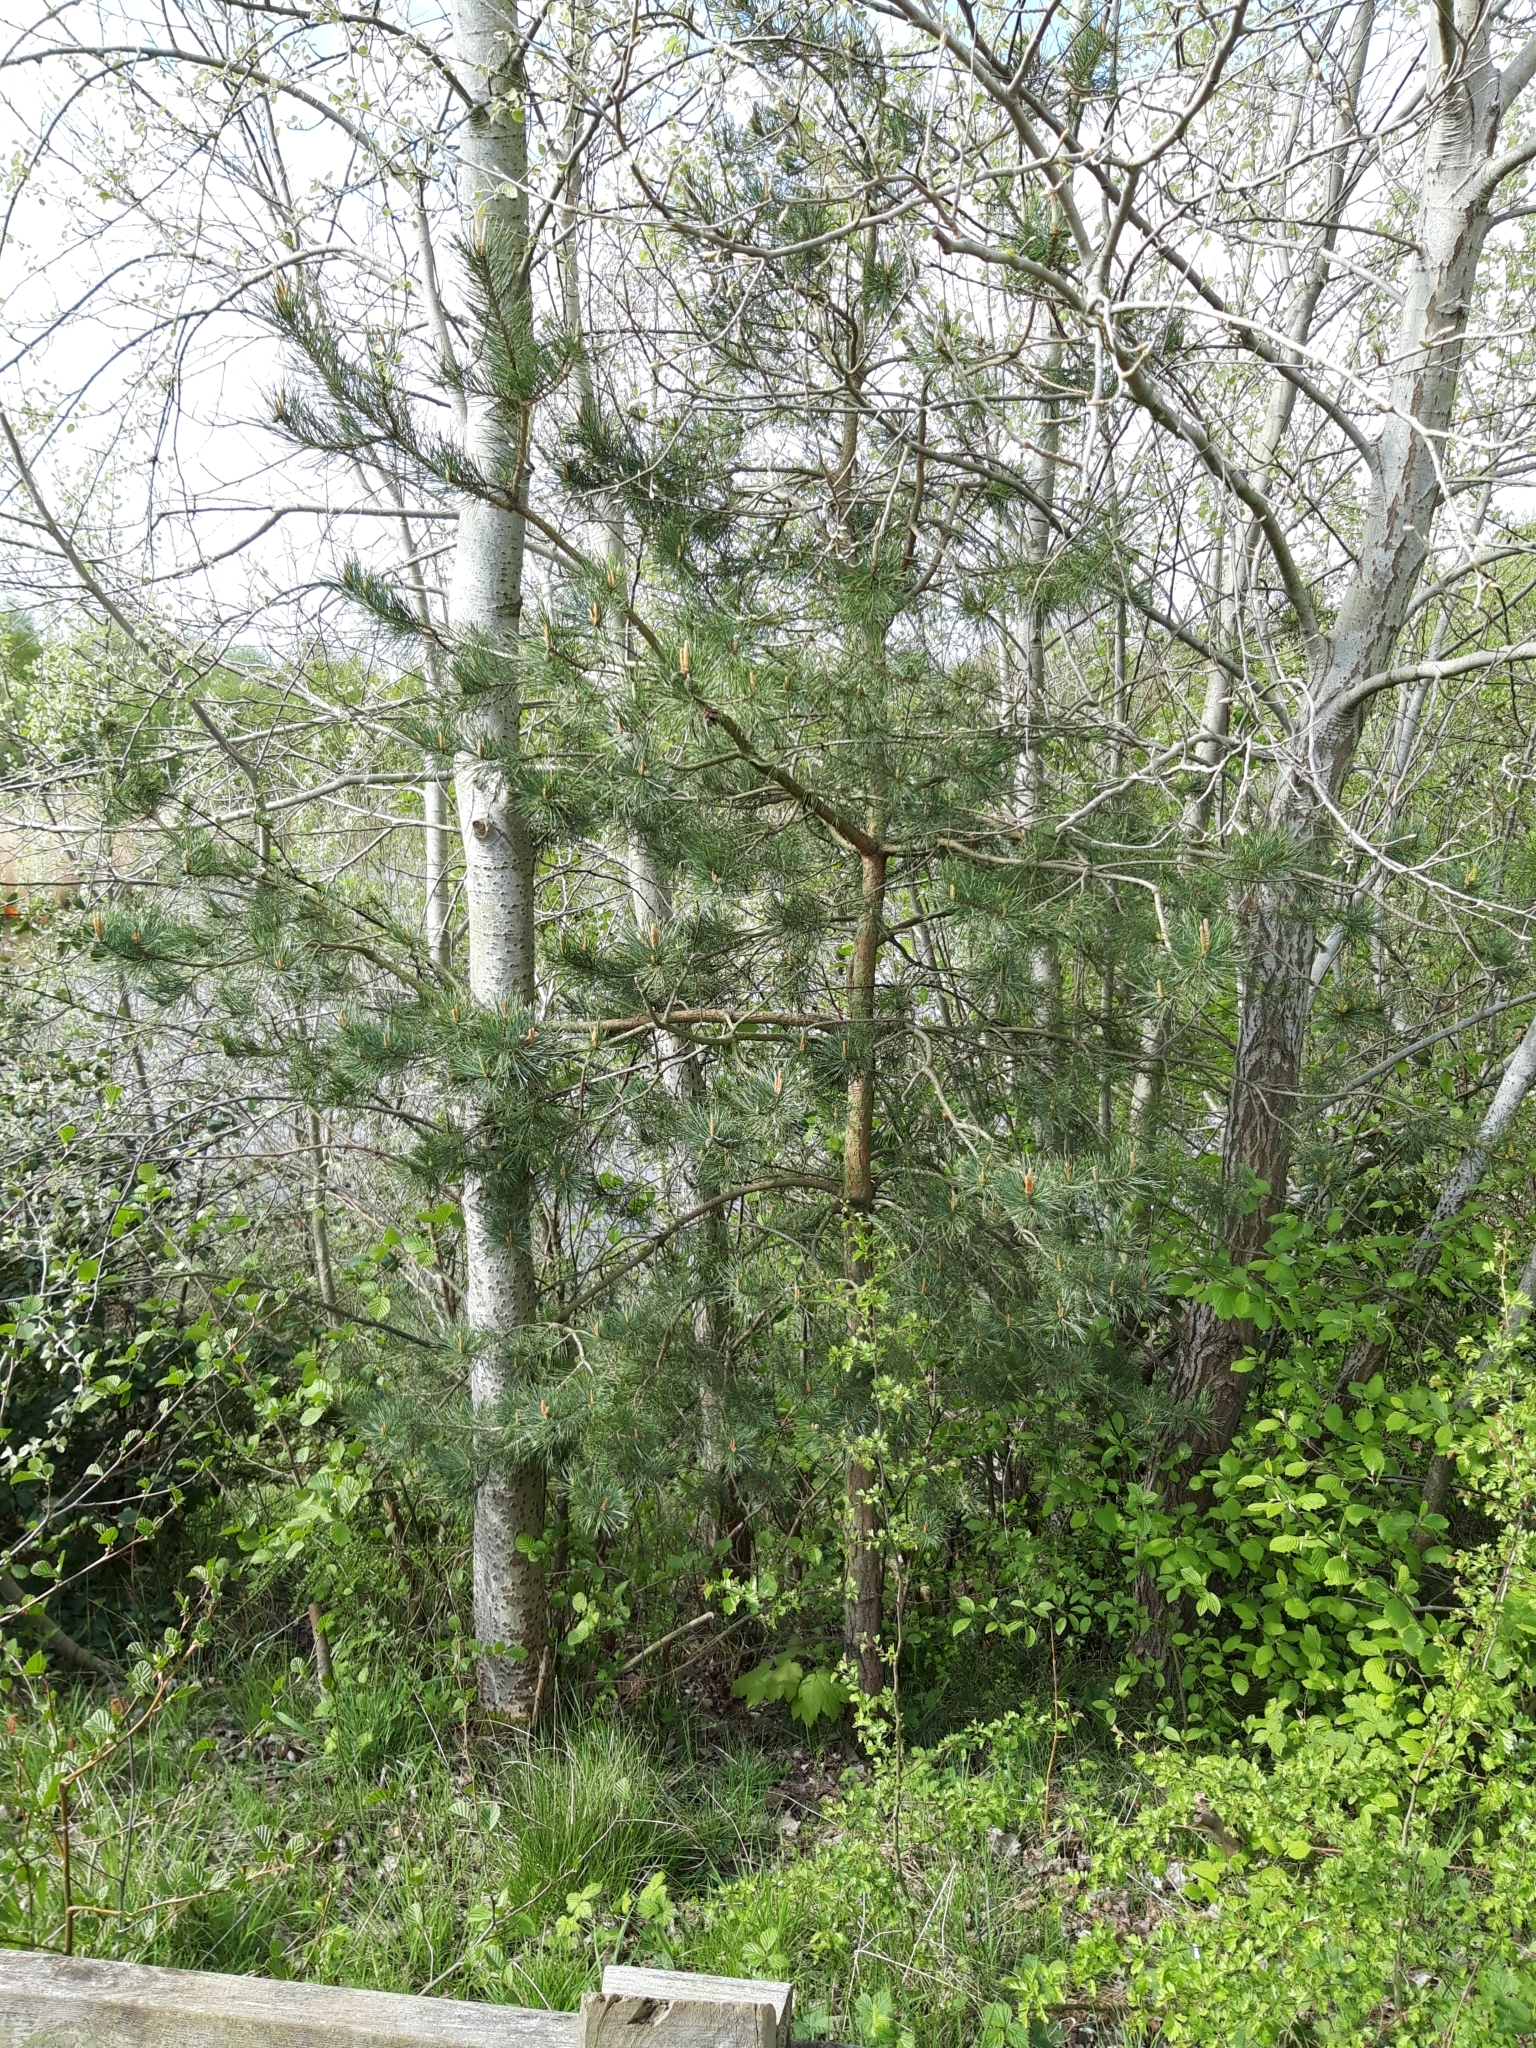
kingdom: Plantae
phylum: Tracheophyta
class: Pinopsida
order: Pinales
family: Pinaceae
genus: Pinus
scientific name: Pinus sylvestris
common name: Scots pine
